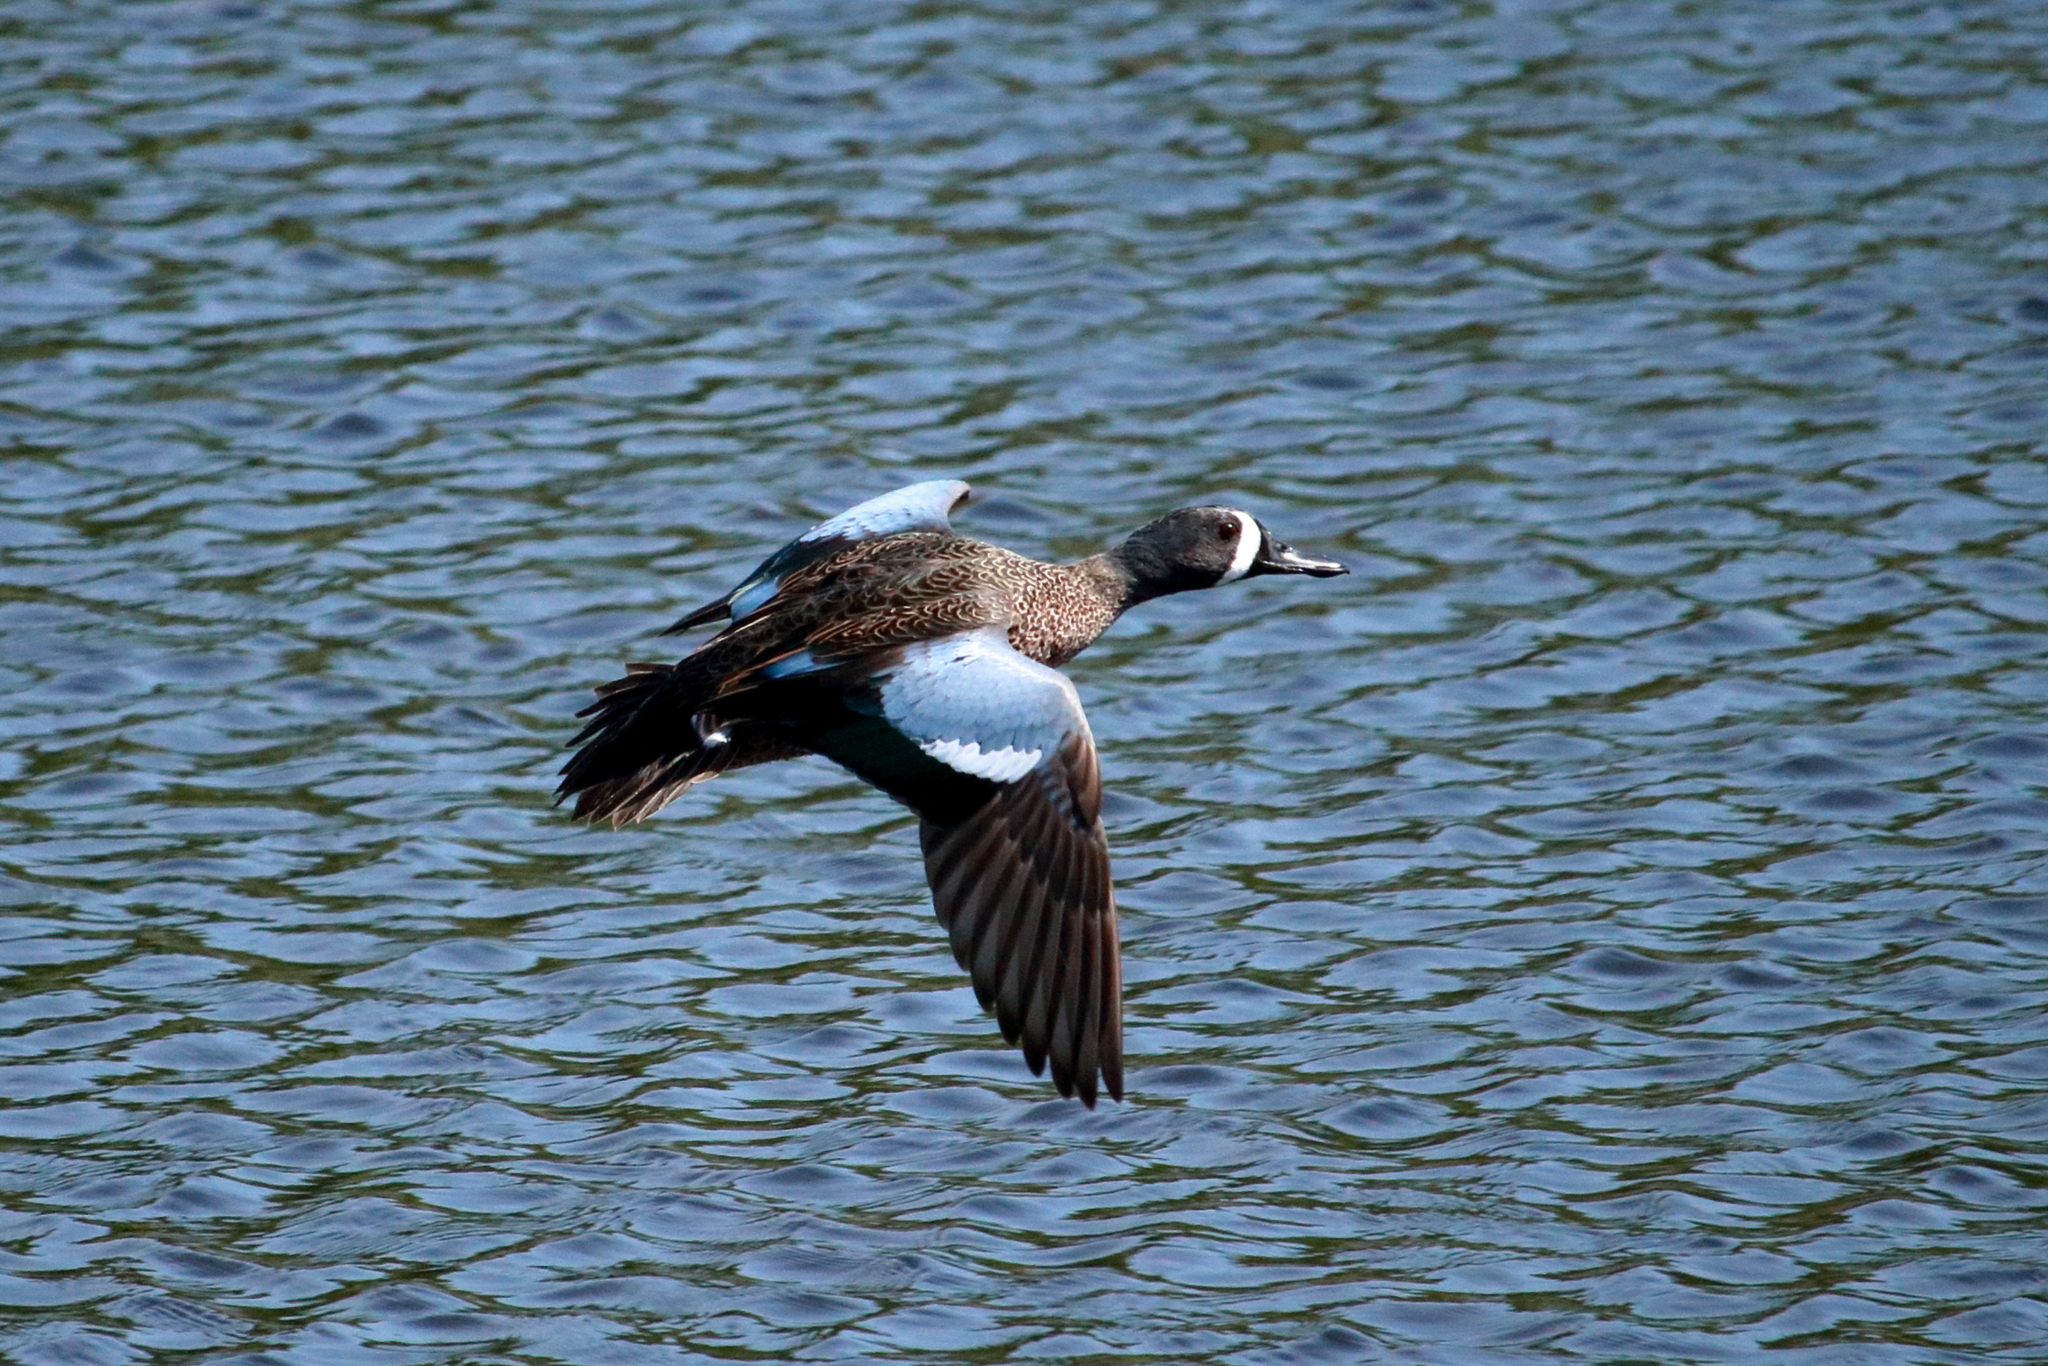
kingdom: Animalia
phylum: Chordata
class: Aves
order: Anseriformes
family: Anatidae
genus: Spatula
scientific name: Spatula discors
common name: Blue-winged teal
